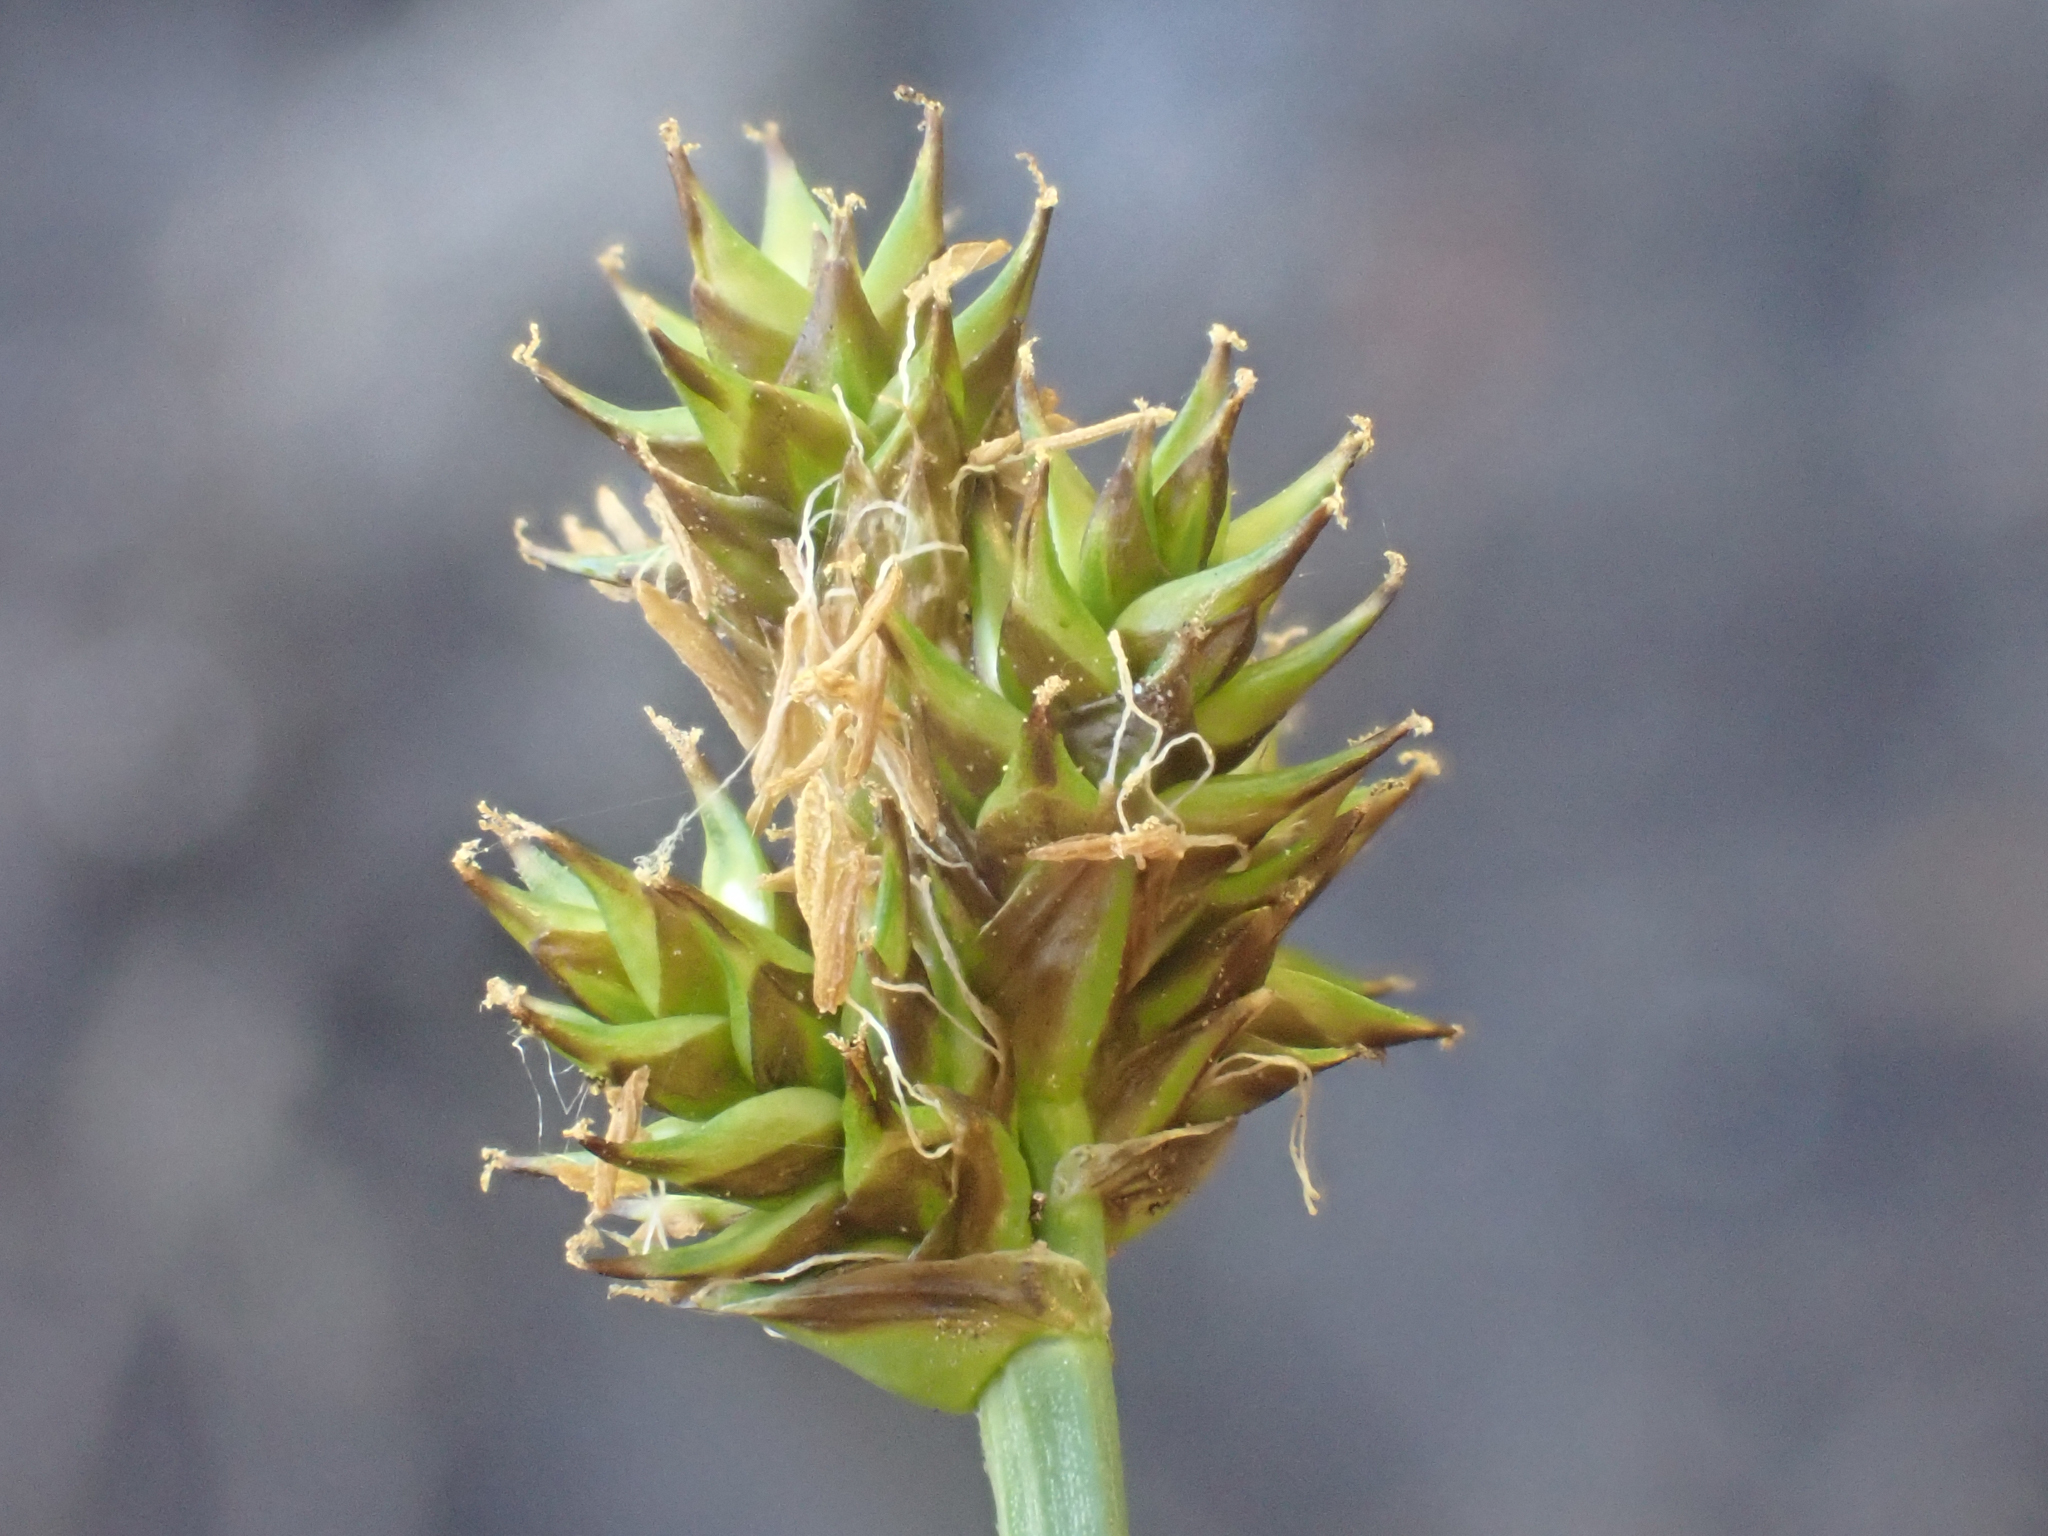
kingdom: Plantae
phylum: Tracheophyta
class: Liliopsida
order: Poales
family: Cyperaceae
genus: Carex
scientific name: Carex illota
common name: Sheep sedge
